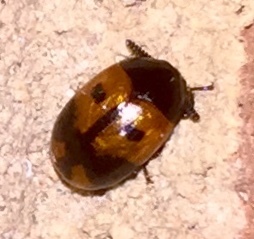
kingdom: Animalia
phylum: Arthropoda
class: Insecta
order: Coleoptera
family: Tenebrionidae
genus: Diaperis
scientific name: Diaperis maculata
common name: Darkling beetle
